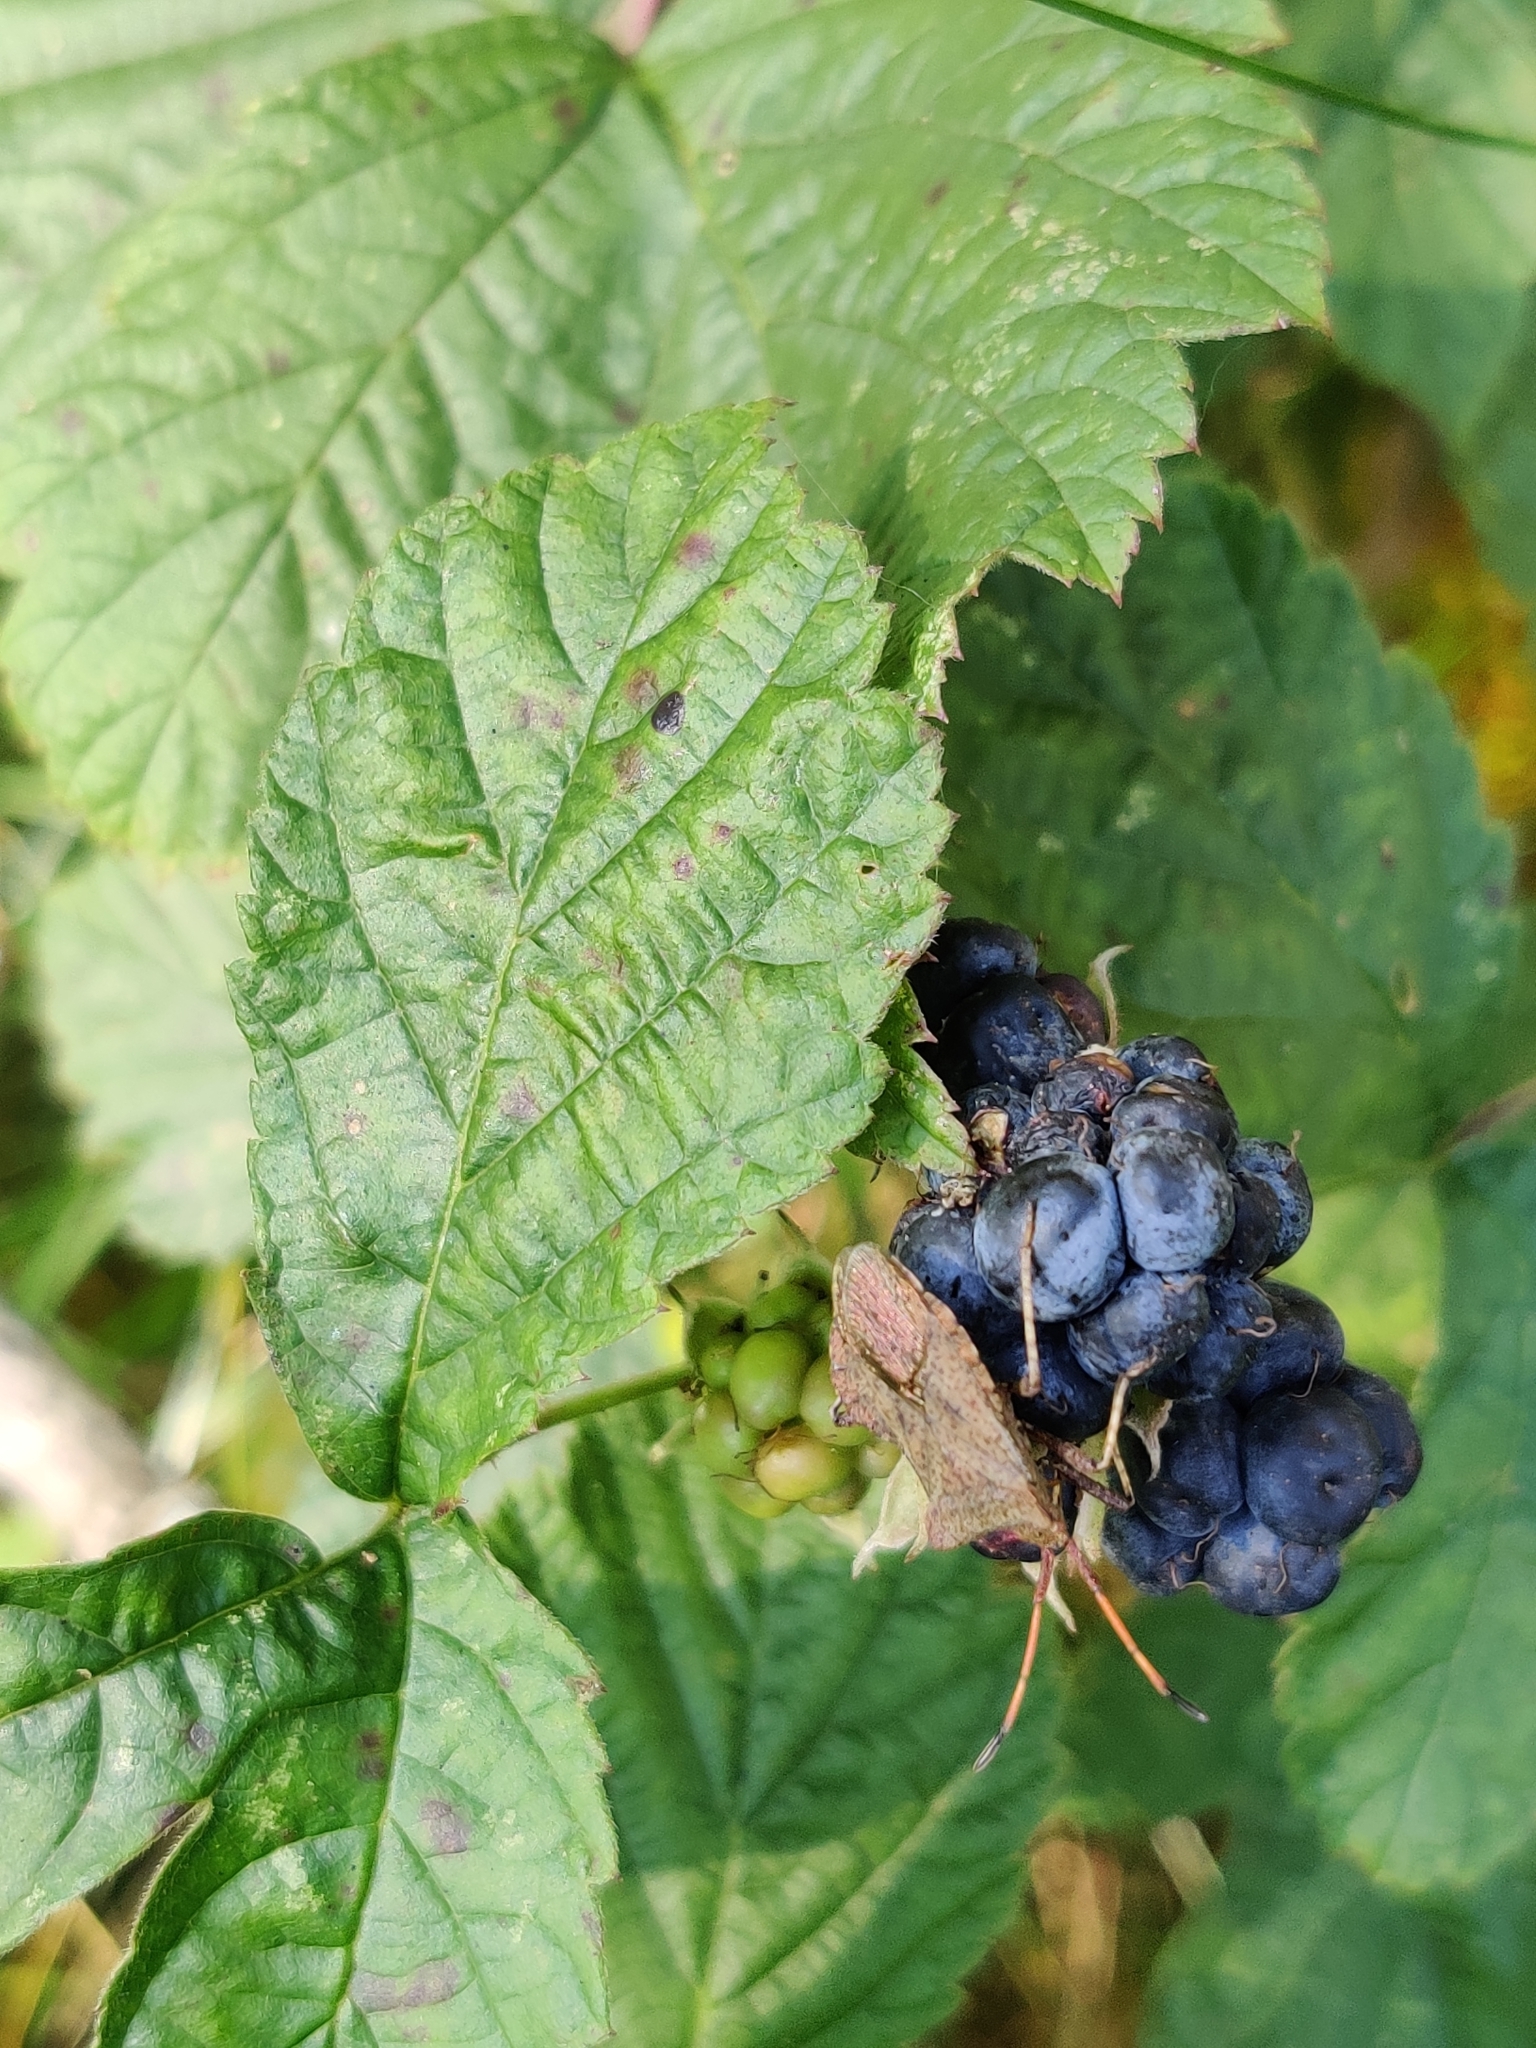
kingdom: Animalia
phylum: Arthropoda
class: Insecta
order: Hemiptera
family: Coreidae
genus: Coreus
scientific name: Coreus marginatus
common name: Dock bug
